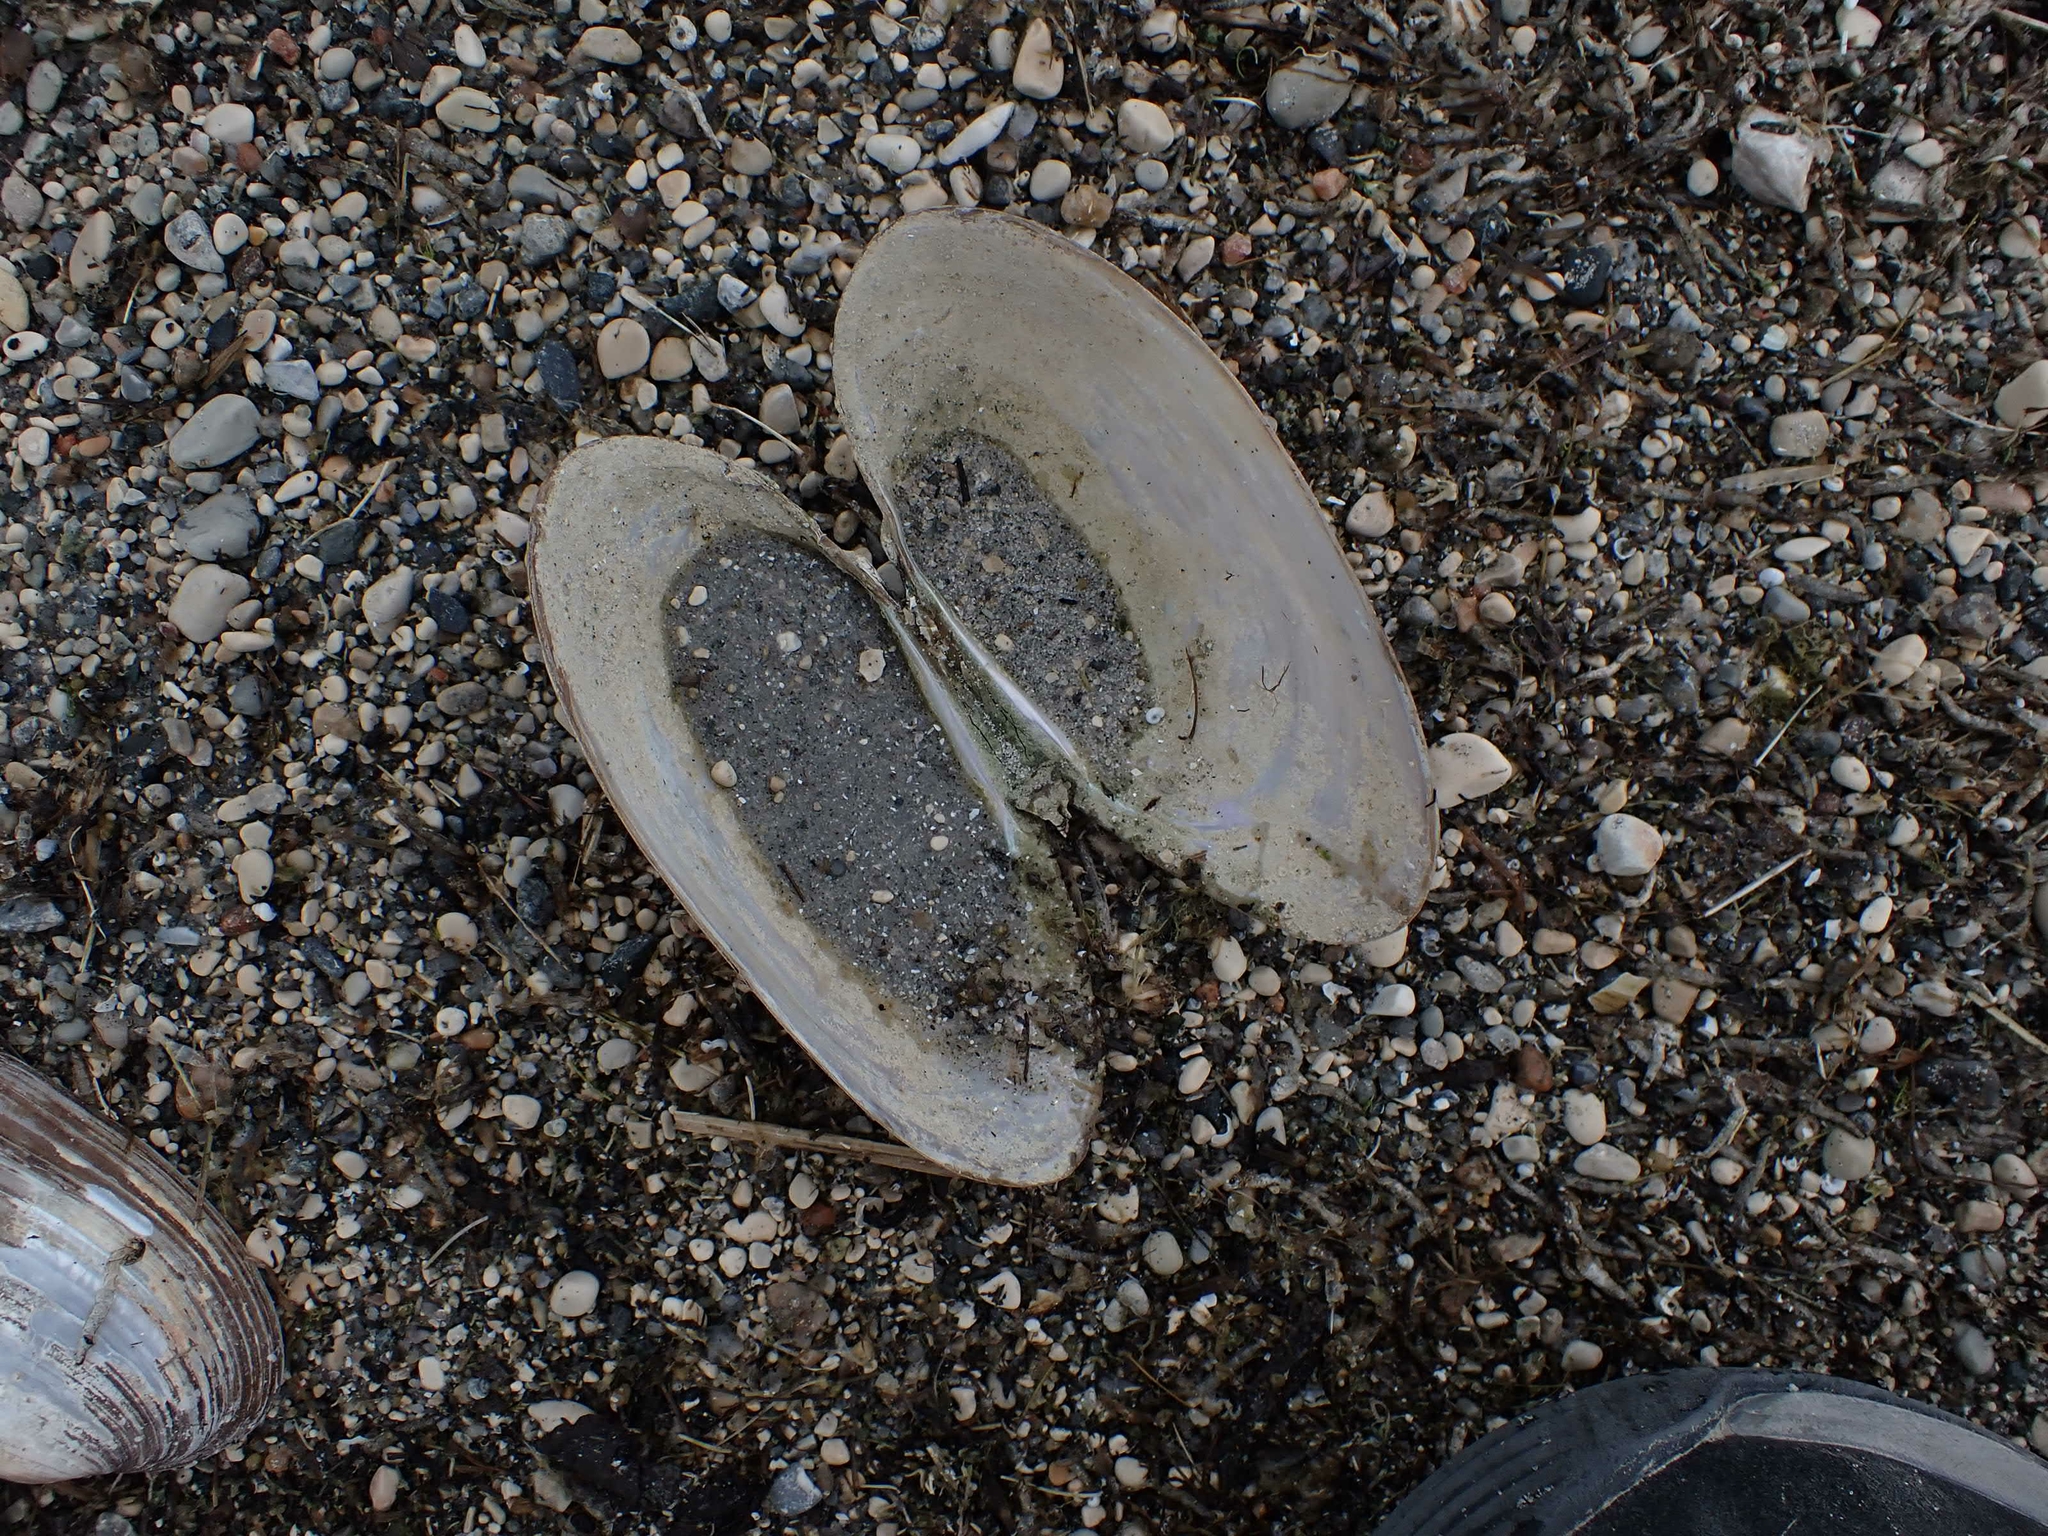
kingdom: Animalia
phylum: Mollusca
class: Bivalvia
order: Unionida
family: Unionidae
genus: Pyganodon
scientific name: Pyganodon grandis
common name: Giant floater
